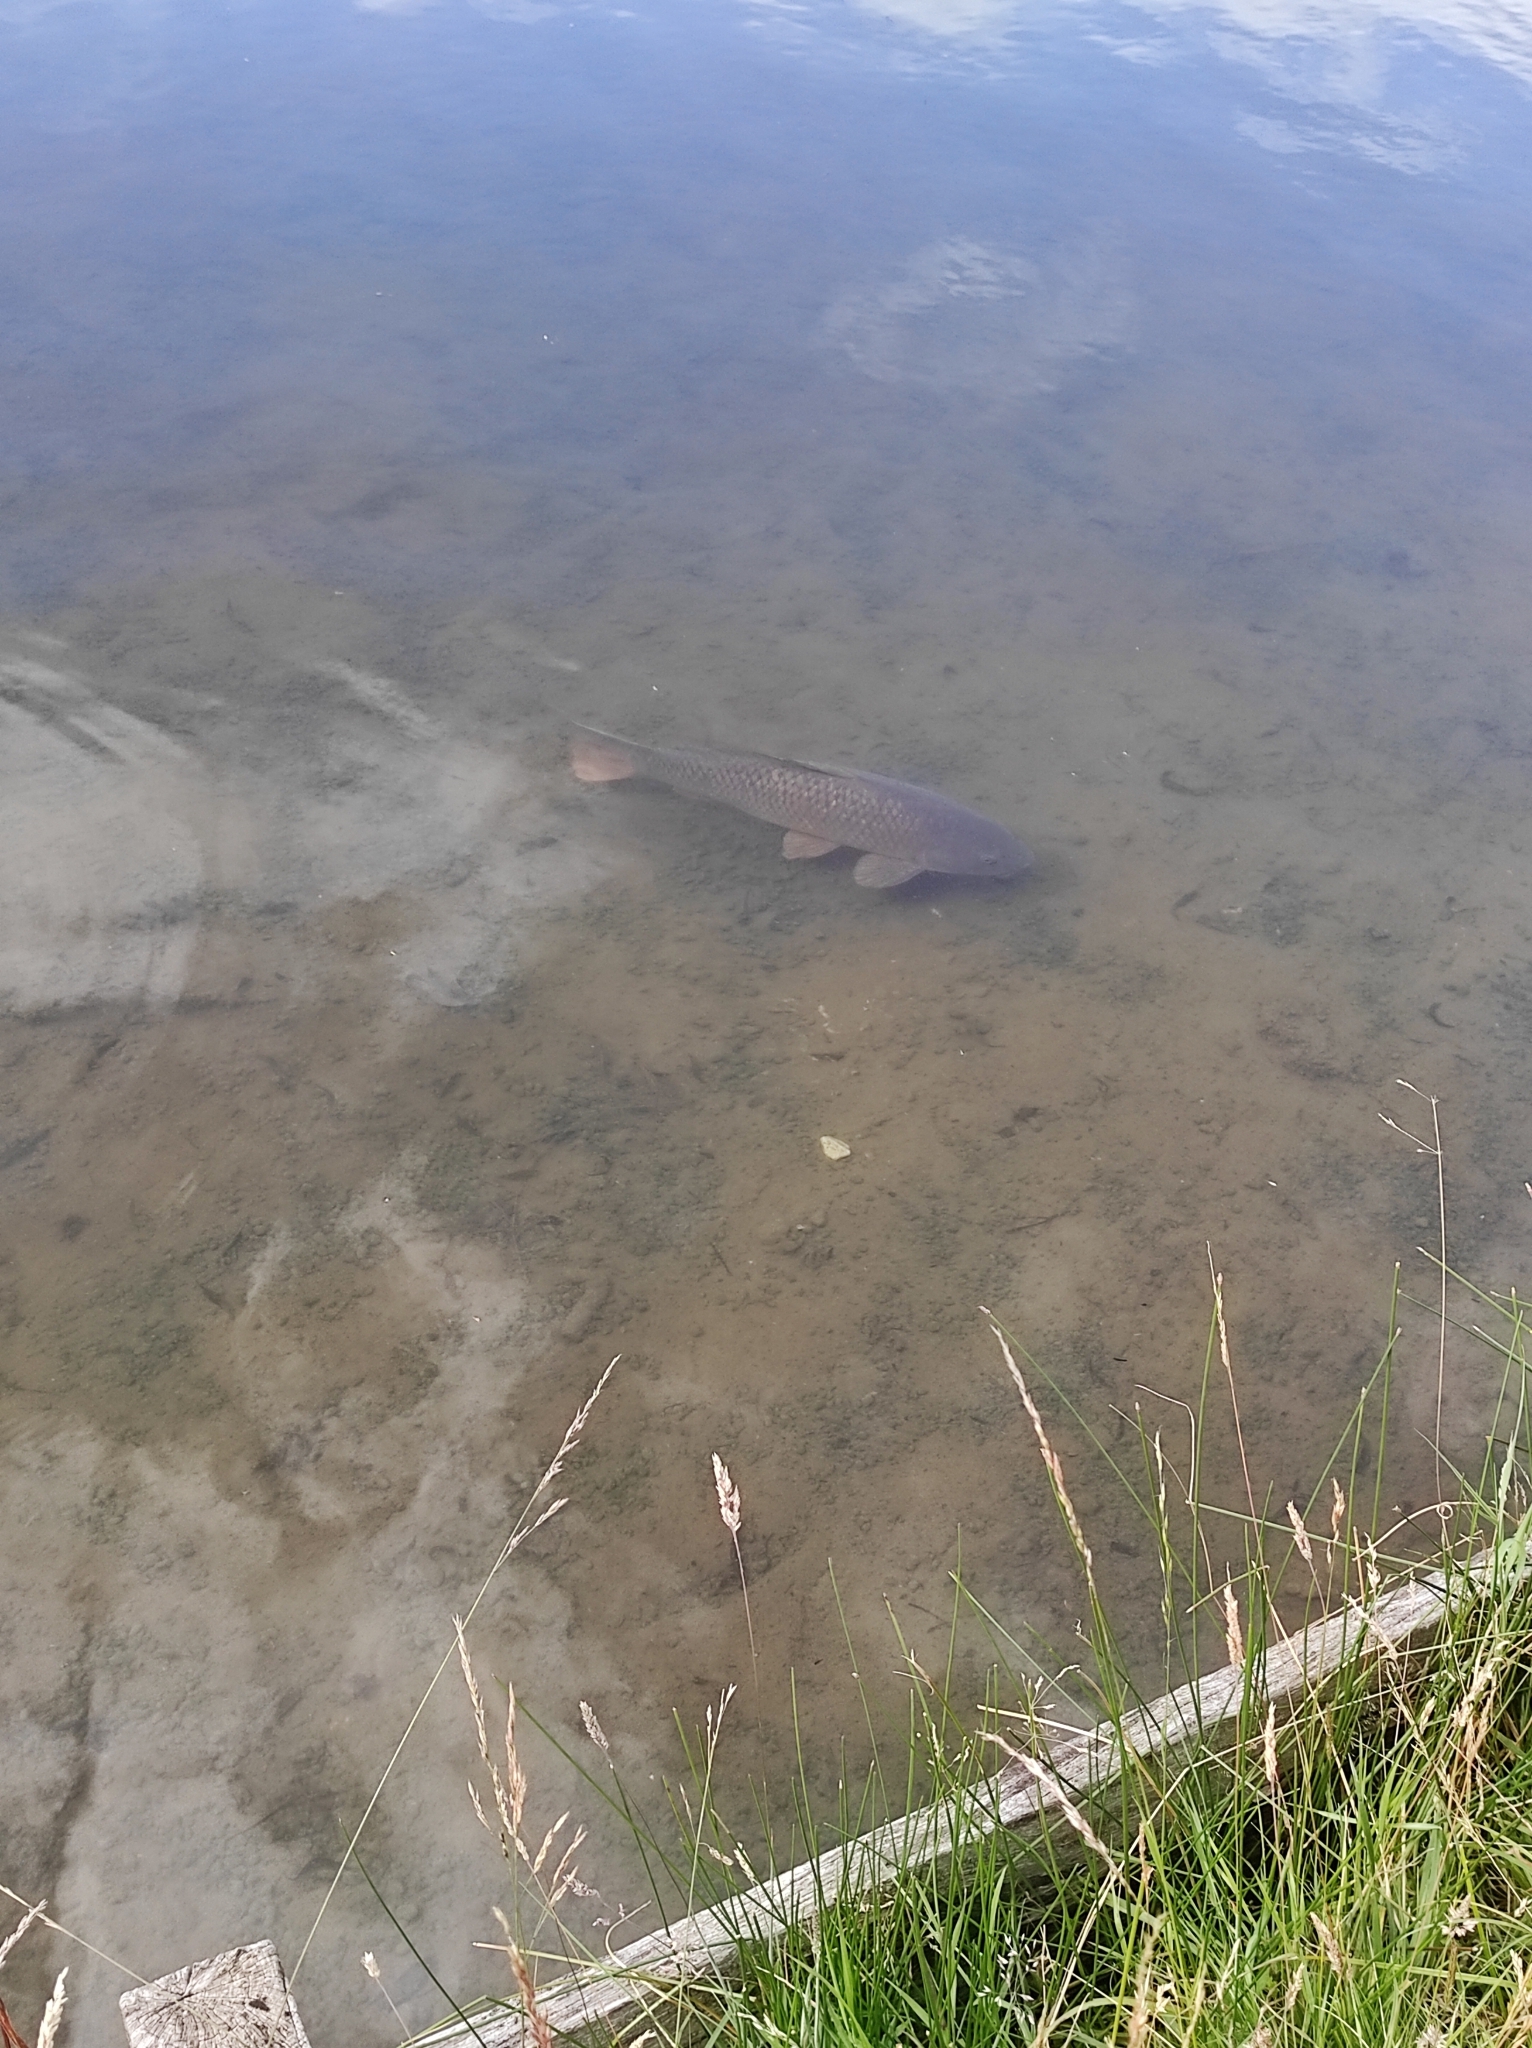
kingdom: Animalia
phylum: Chordata
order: Cypriniformes
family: Cyprinidae
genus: Cyprinus
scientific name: Cyprinus carpio
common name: Common carp
